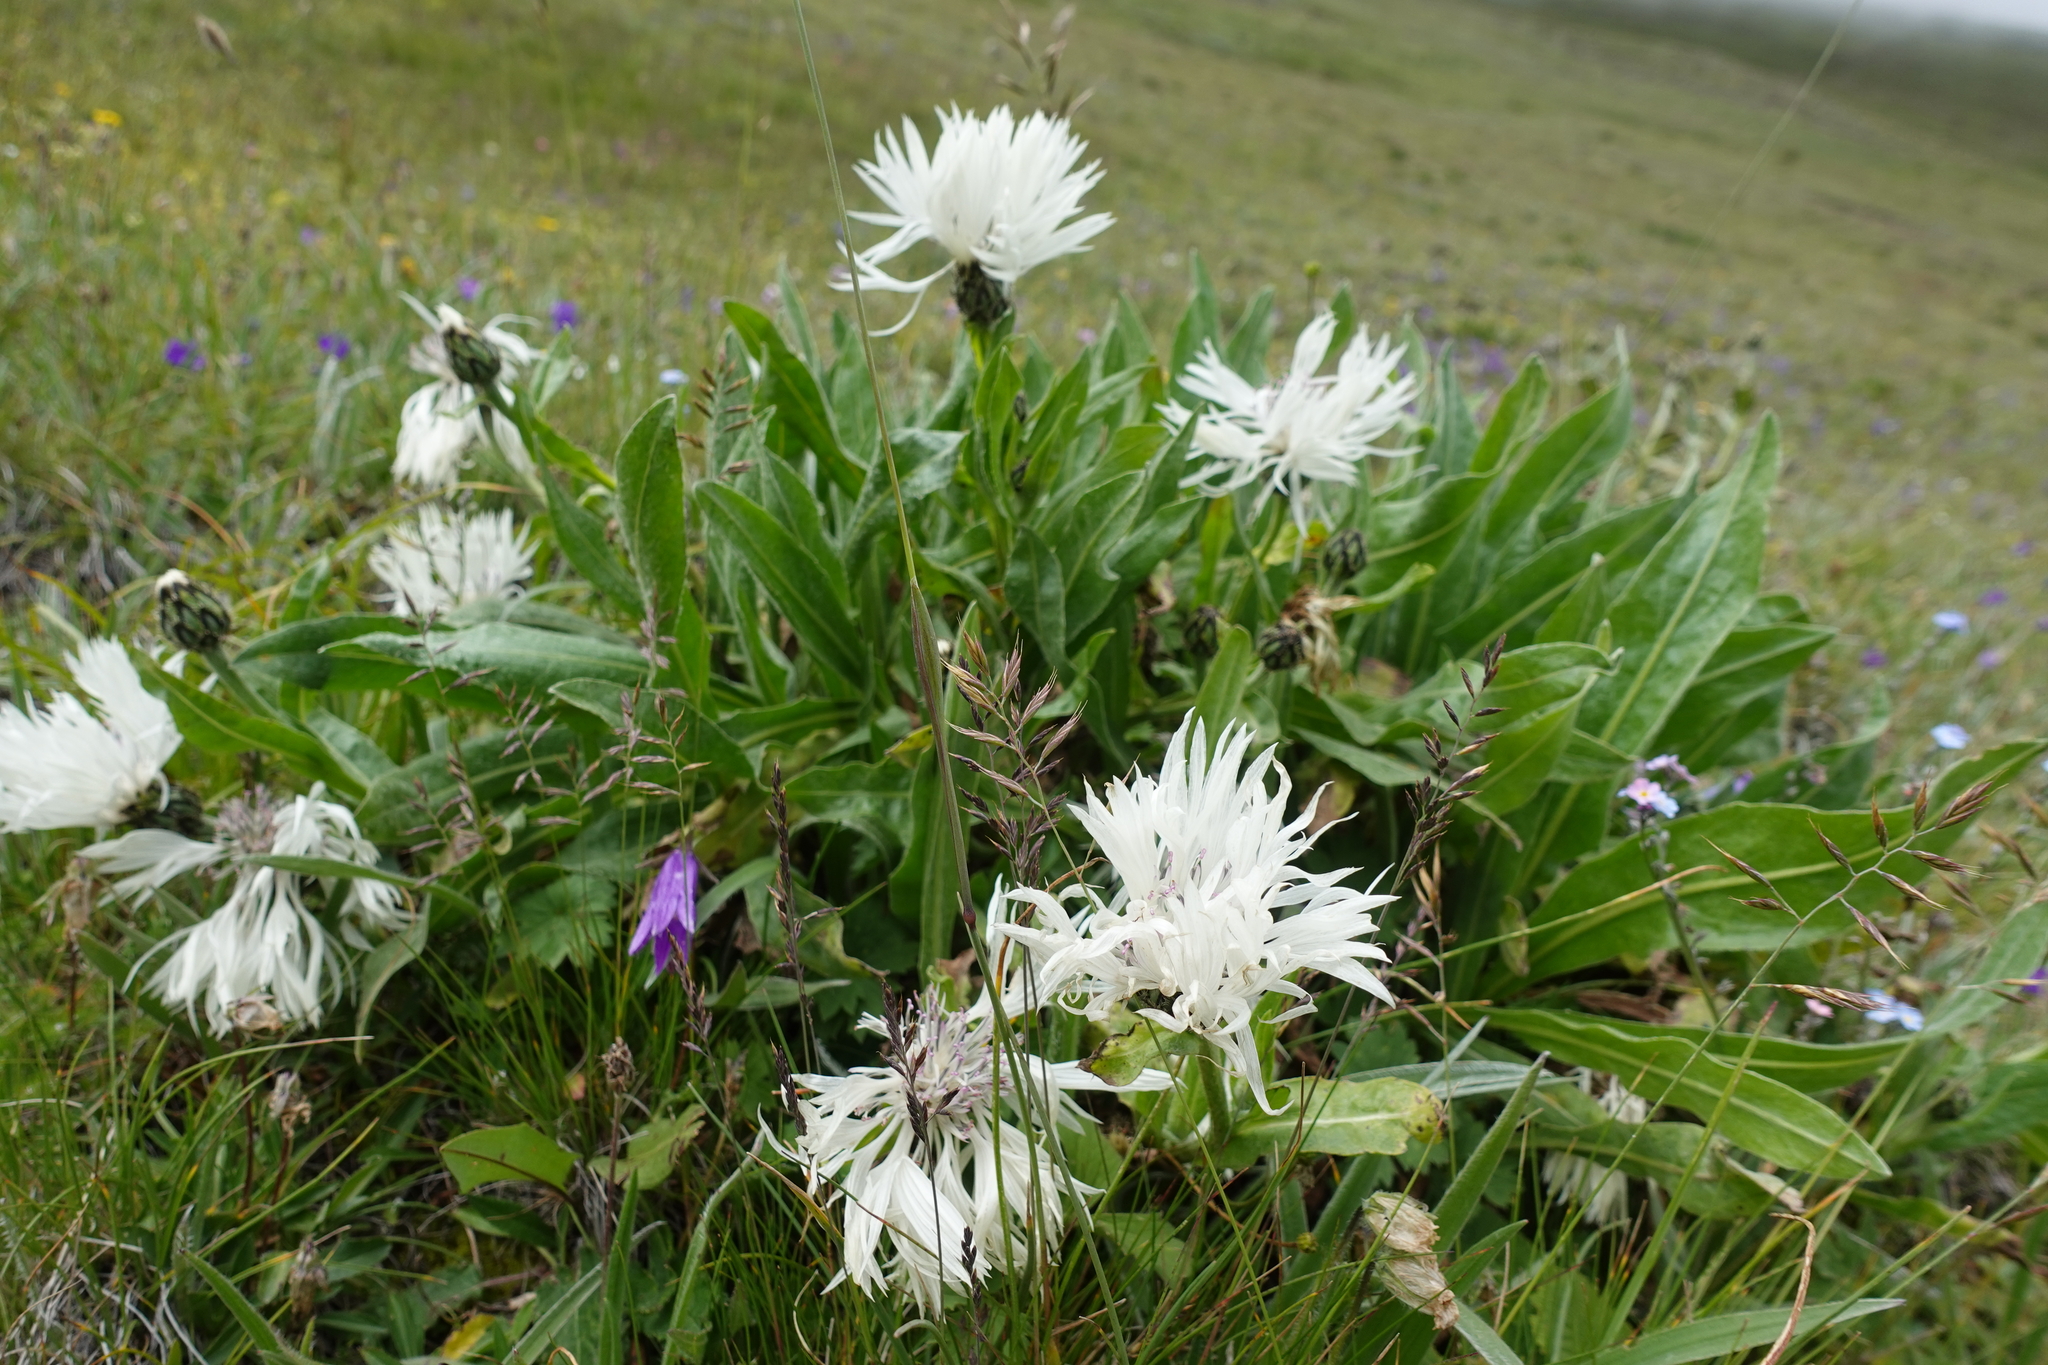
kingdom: Plantae
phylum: Tracheophyta
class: Magnoliopsida
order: Asterales
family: Asteraceae
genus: Centaurea
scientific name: Centaurea cheiranthifolia
